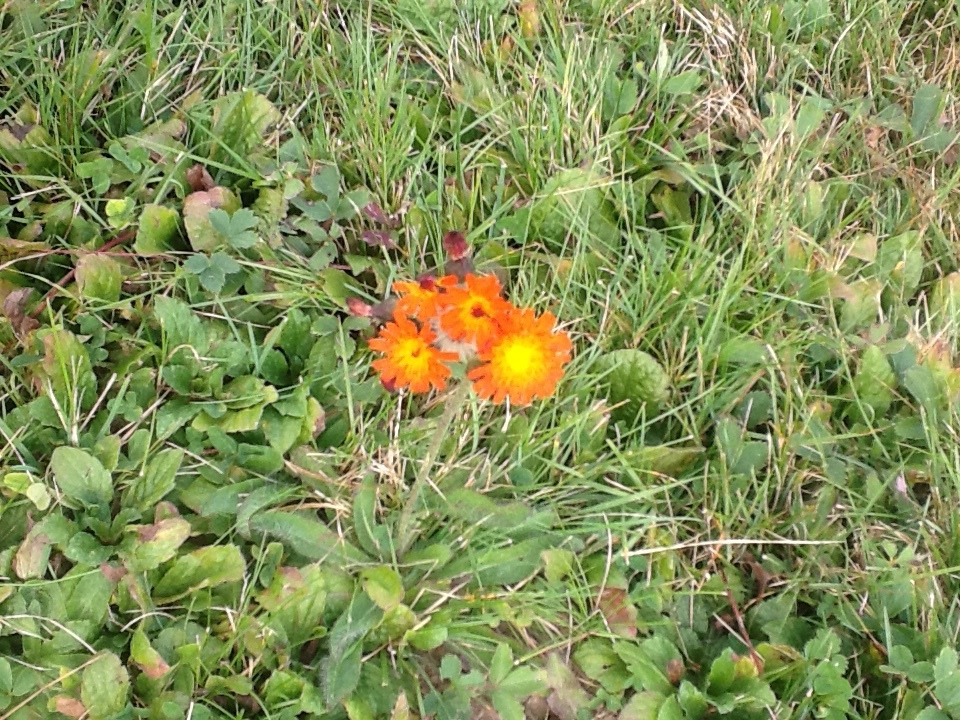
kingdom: Plantae
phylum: Tracheophyta
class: Magnoliopsida
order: Asterales
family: Asteraceae
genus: Pilosella
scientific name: Pilosella aurantiaca
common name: Fox-and-cubs
